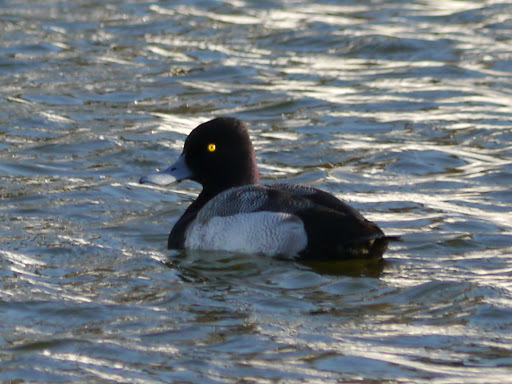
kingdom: Animalia
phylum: Chordata
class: Aves
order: Anseriformes
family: Anatidae
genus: Aythya
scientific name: Aythya affinis
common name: Lesser scaup
